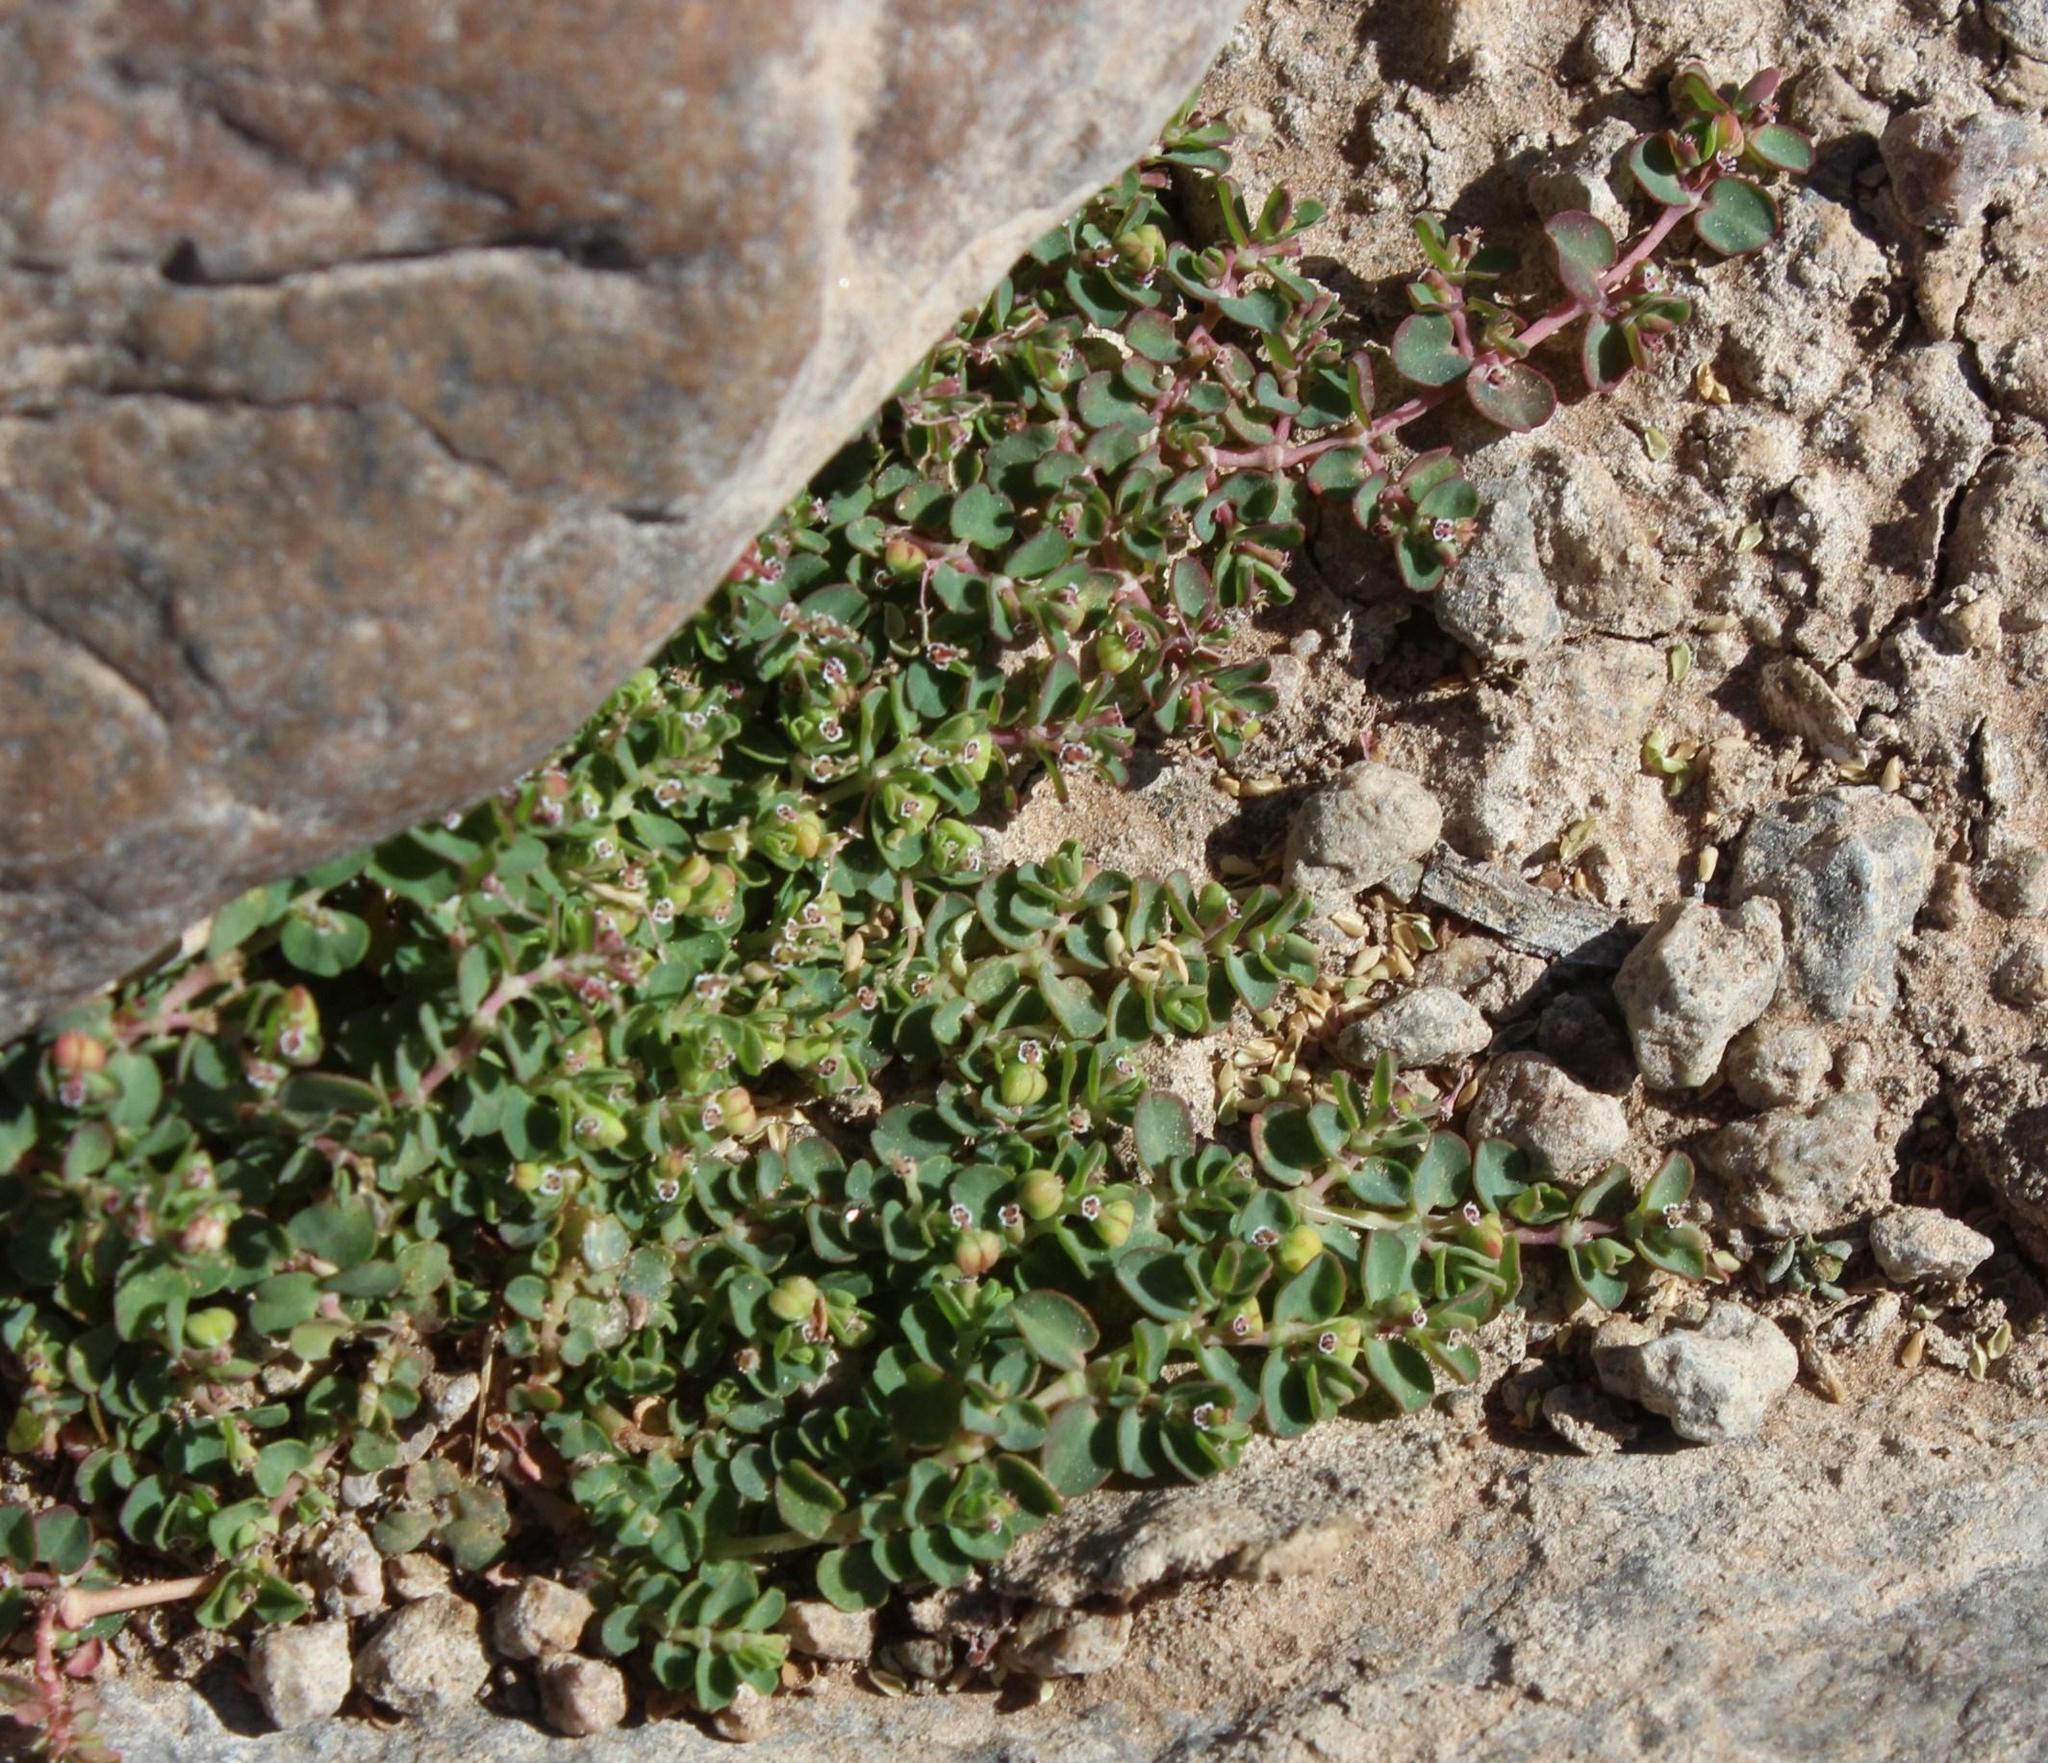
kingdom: Plantae
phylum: Tracheophyta
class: Magnoliopsida
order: Malpighiales
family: Euphorbiaceae
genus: Euphorbia
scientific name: Euphorbia serpens
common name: Matted sandmat
